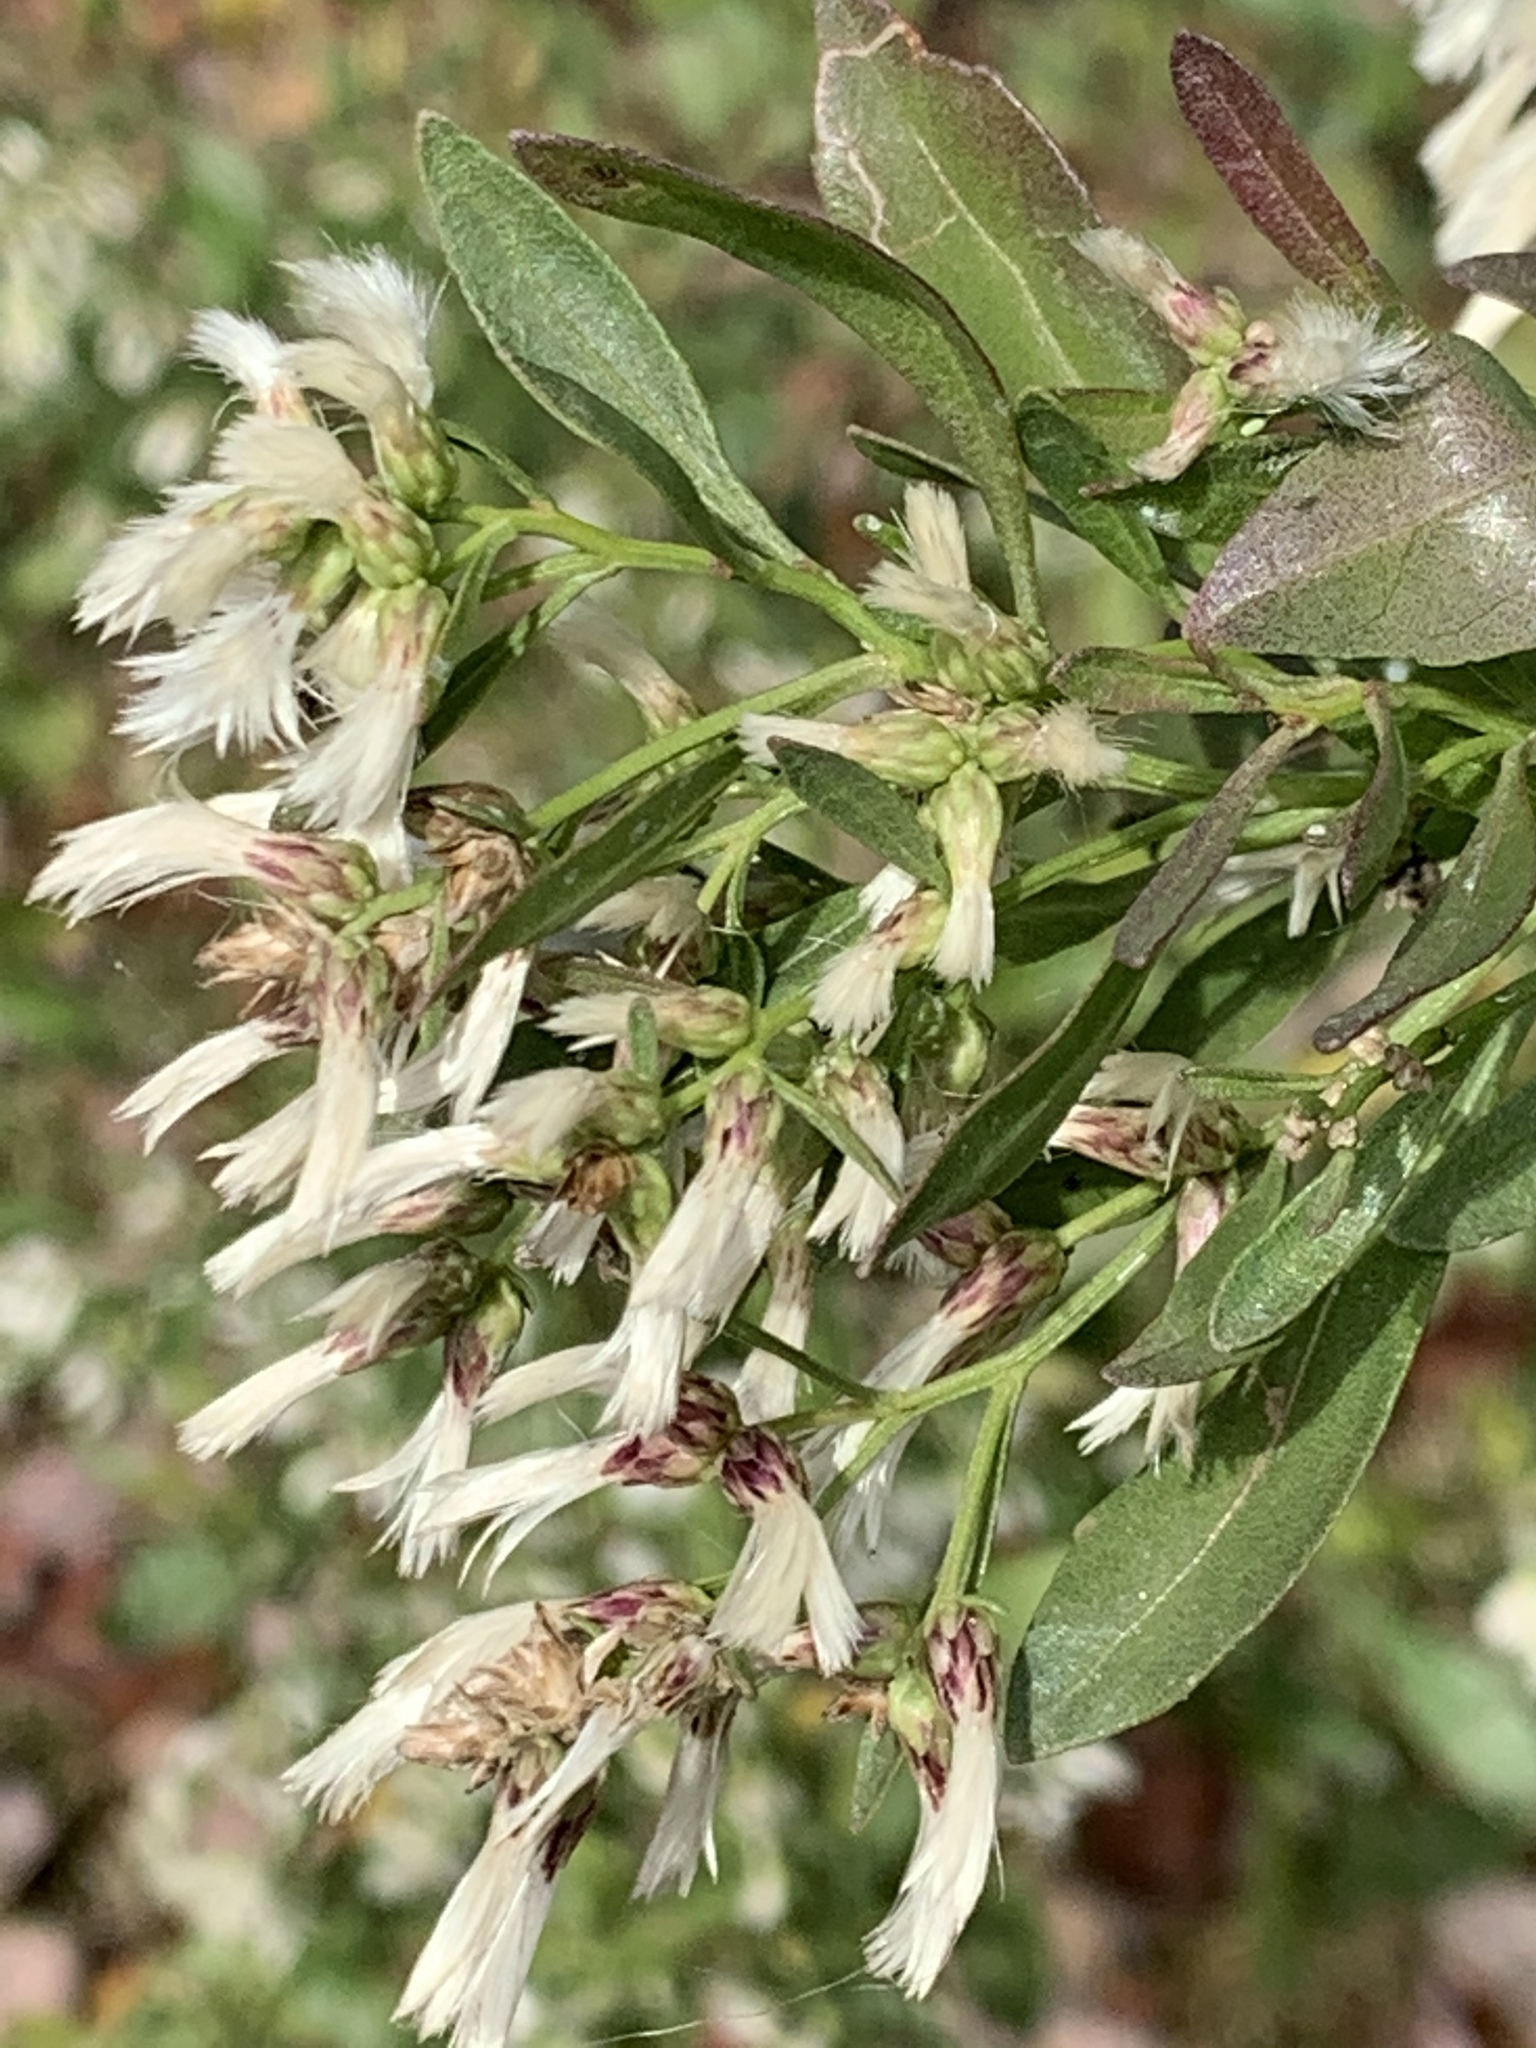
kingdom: Plantae
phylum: Tracheophyta
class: Magnoliopsida
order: Asterales
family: Asteraceae
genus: Baccharis
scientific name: Baccharis halimifolia
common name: Eastern baccharis
